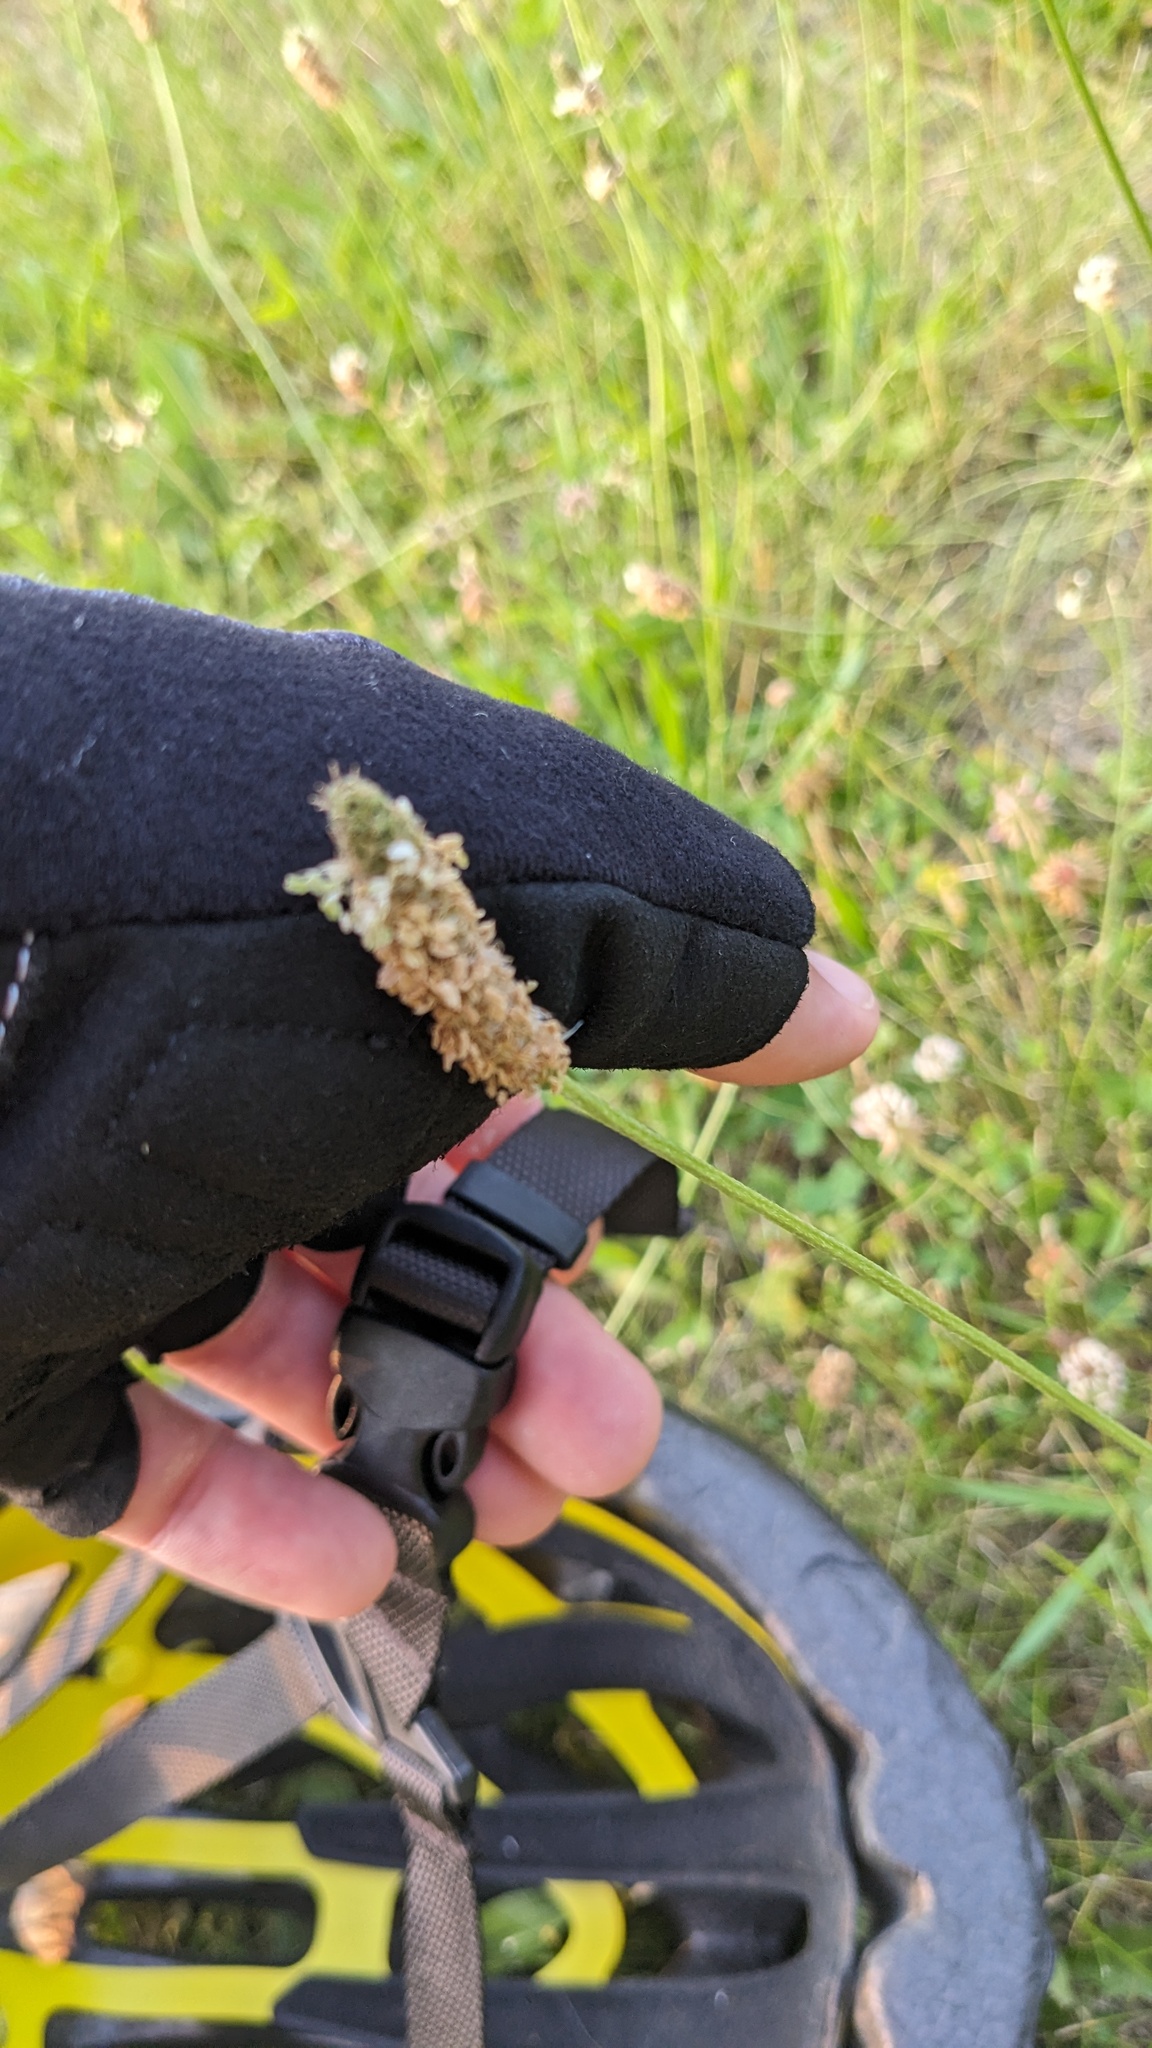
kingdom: Plantae
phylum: Tracheophyta
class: Magnoliopsida
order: Lamiales
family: Plantaginaceae
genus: Plantago
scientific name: Plantago lanceolata
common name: Ribwort plantain
